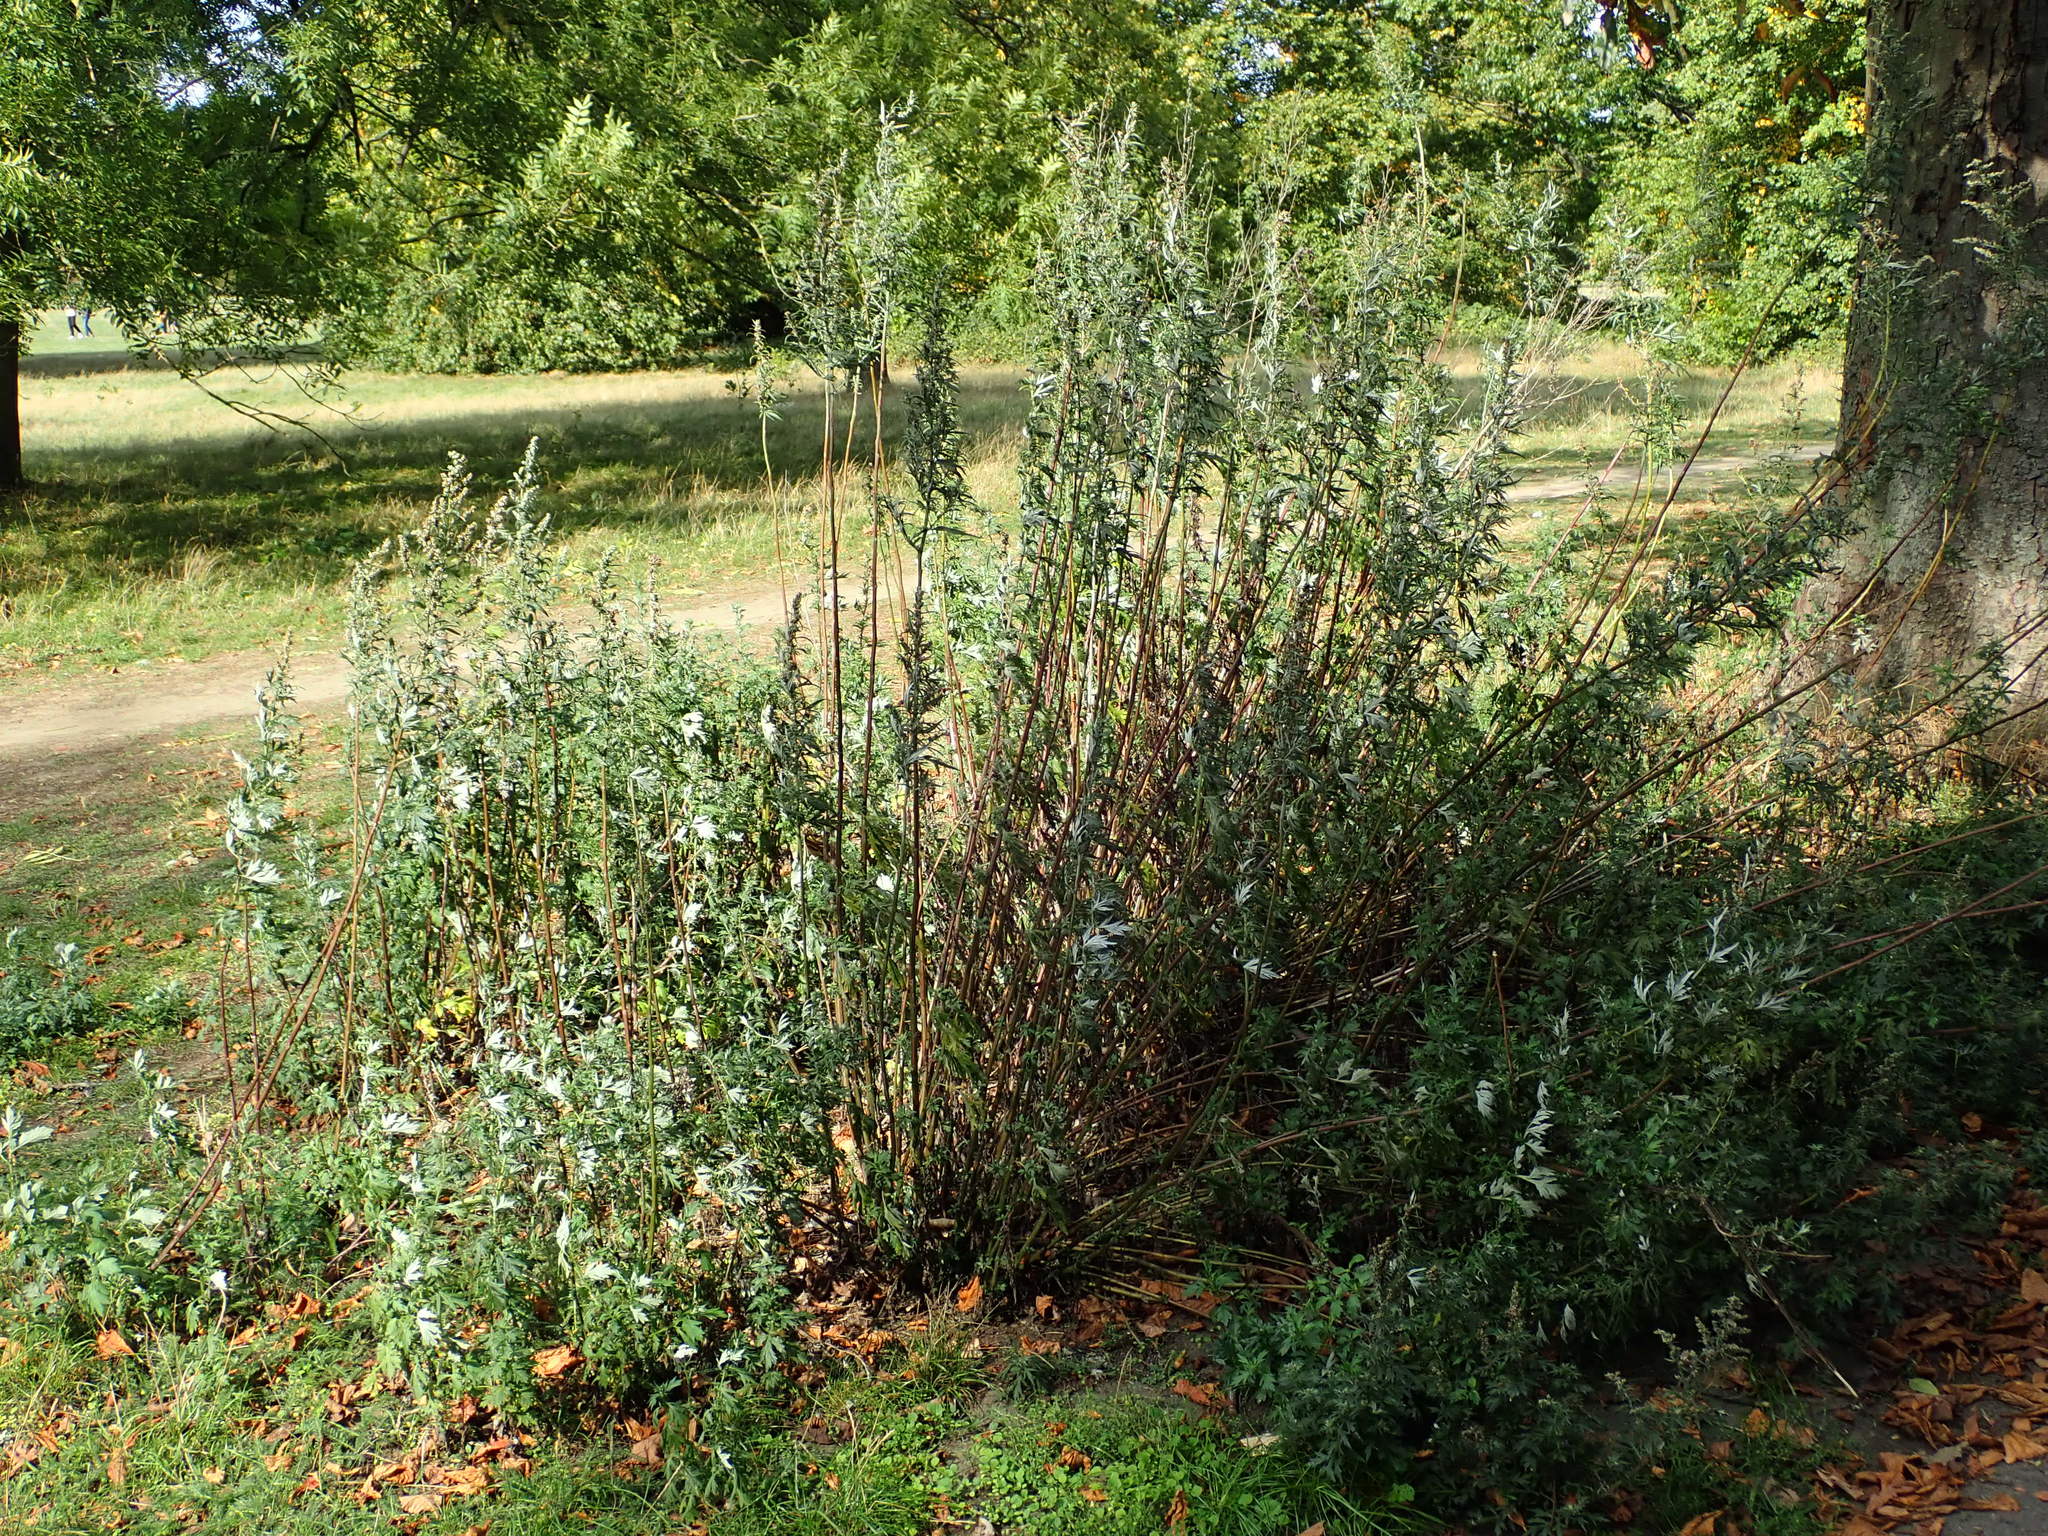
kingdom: Plantae
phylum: Tracheophyta
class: Magnoliopsida
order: Asterales
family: Asteraceae
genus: Artemisia
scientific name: Artemisia vulgaris
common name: Mugwort
